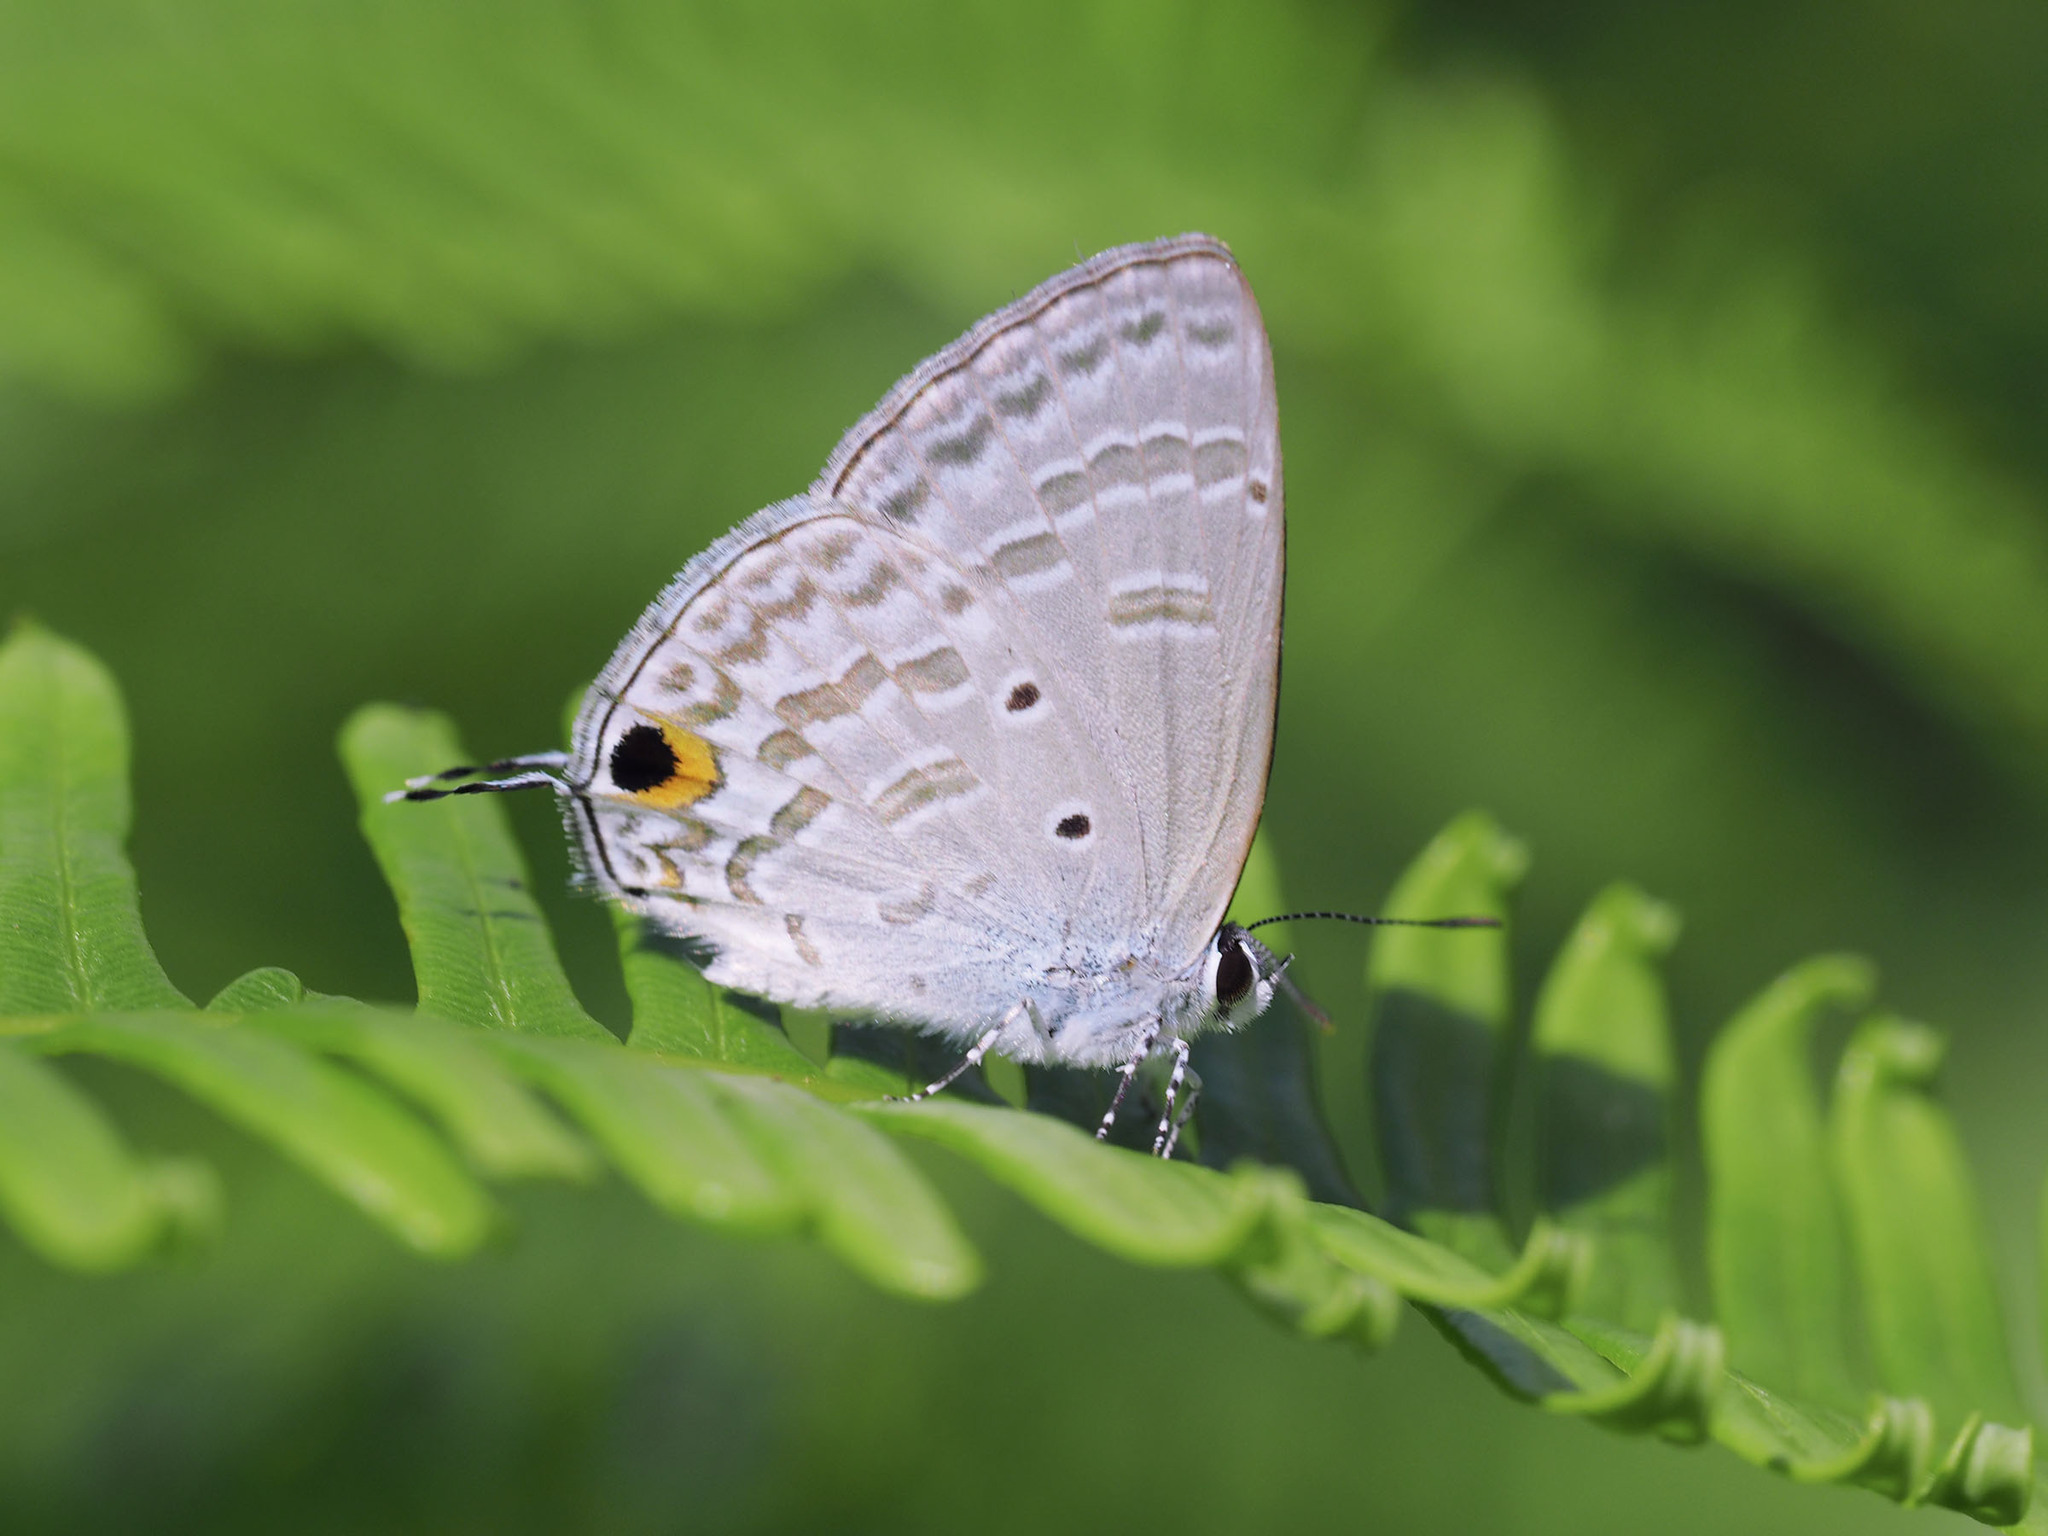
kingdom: Animalia
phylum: Arthropoda
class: Insecta
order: Lepidoptera
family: Lycaenidae
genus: Catochrysops
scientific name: Catochrysops panormus
